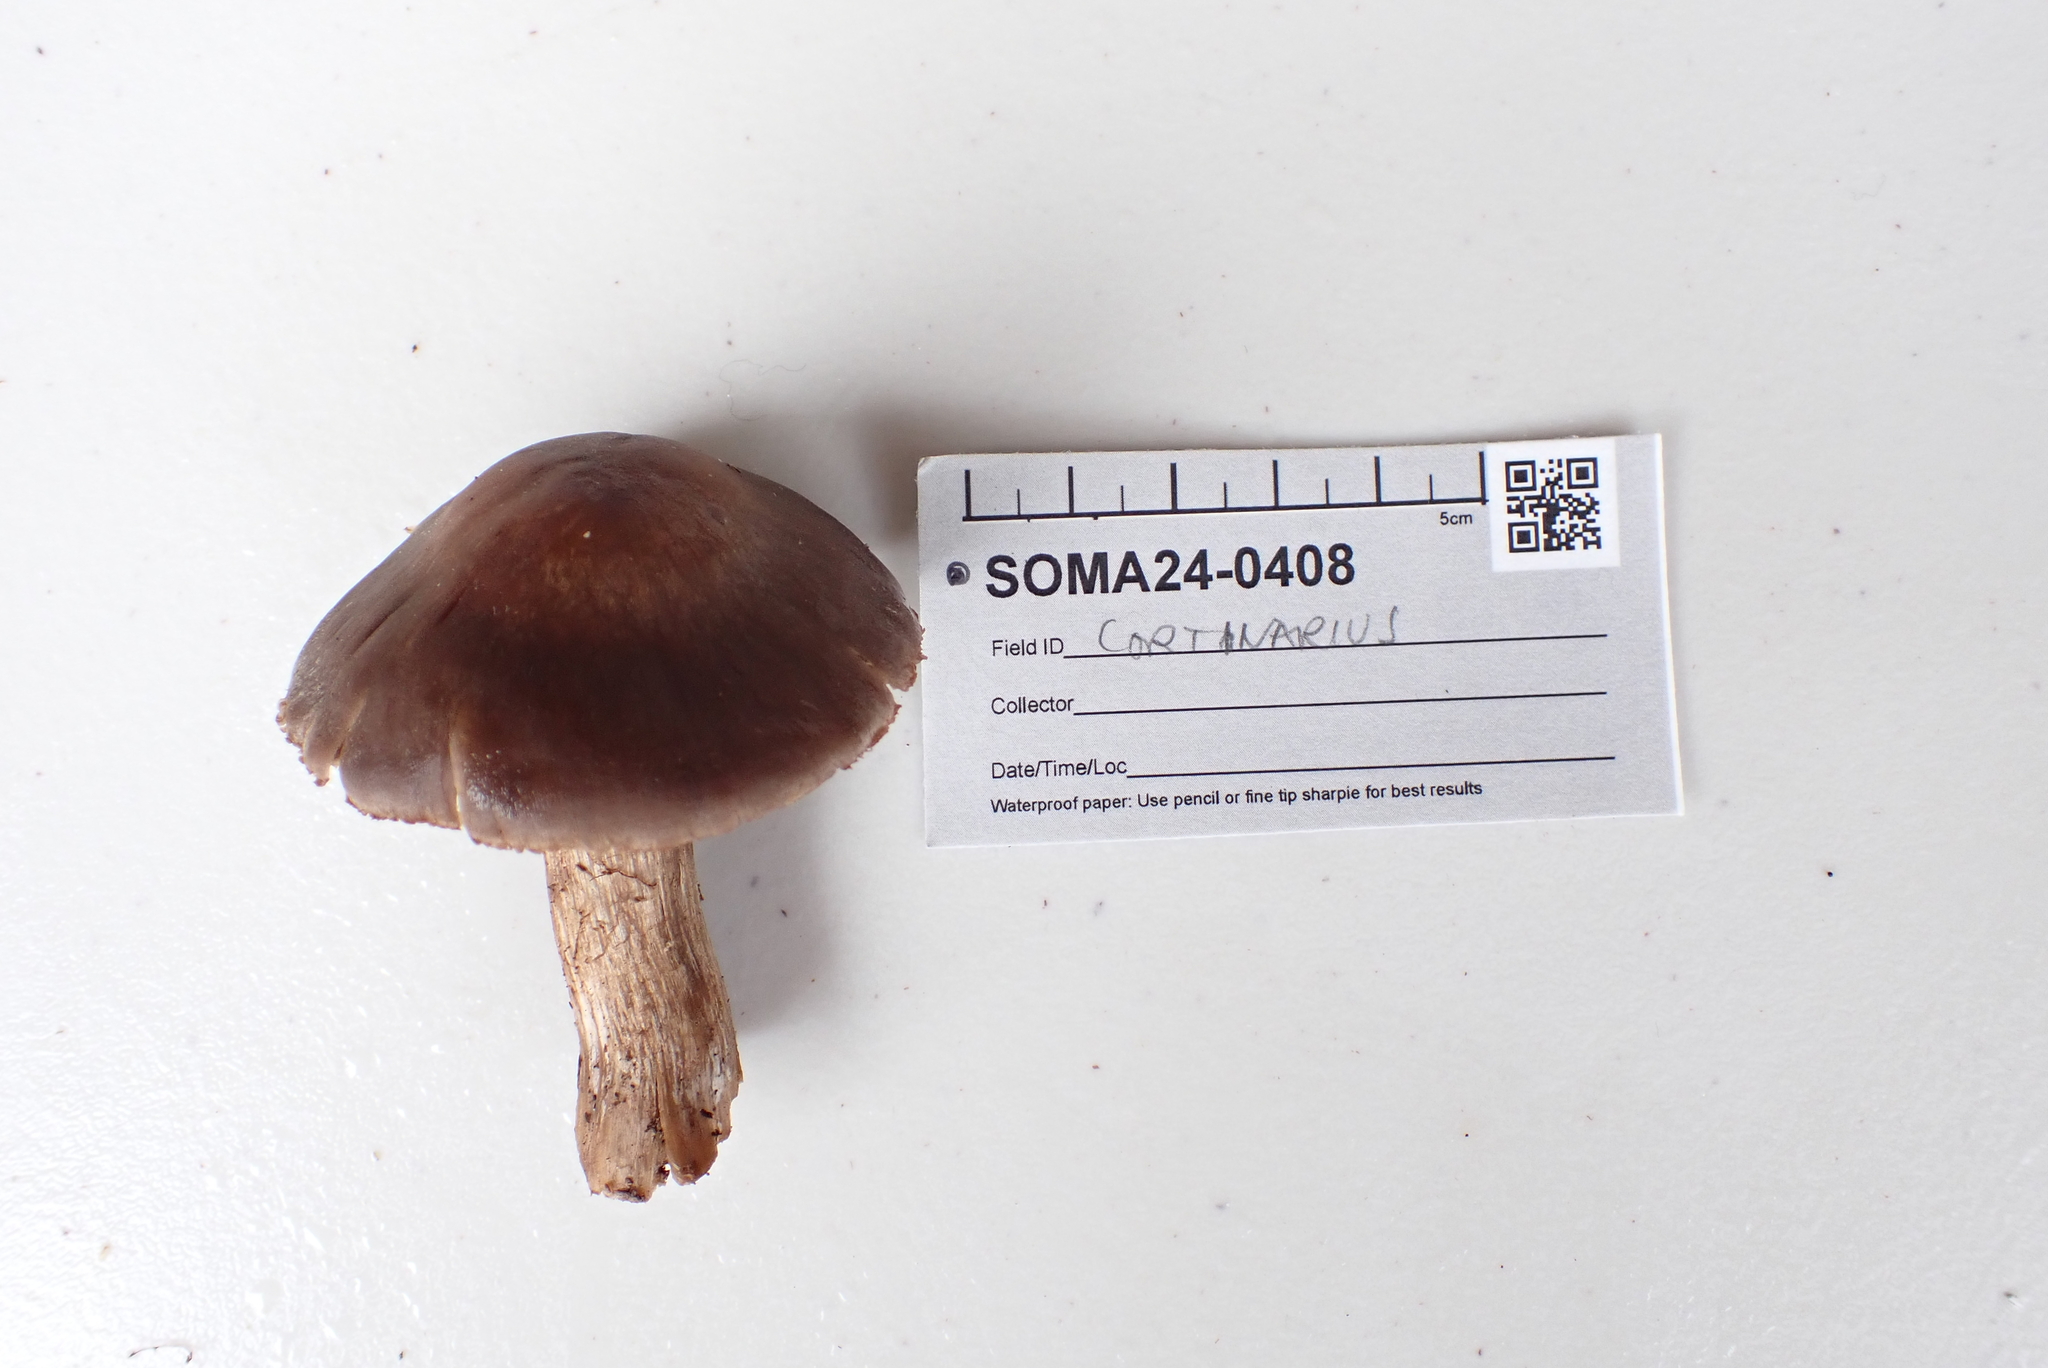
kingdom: Fungi
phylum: Basidiomycota
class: Agaricomycetes
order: Agaricales
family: Cortinariaceae
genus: Cortinarius
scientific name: Cortinarius cisqhale
